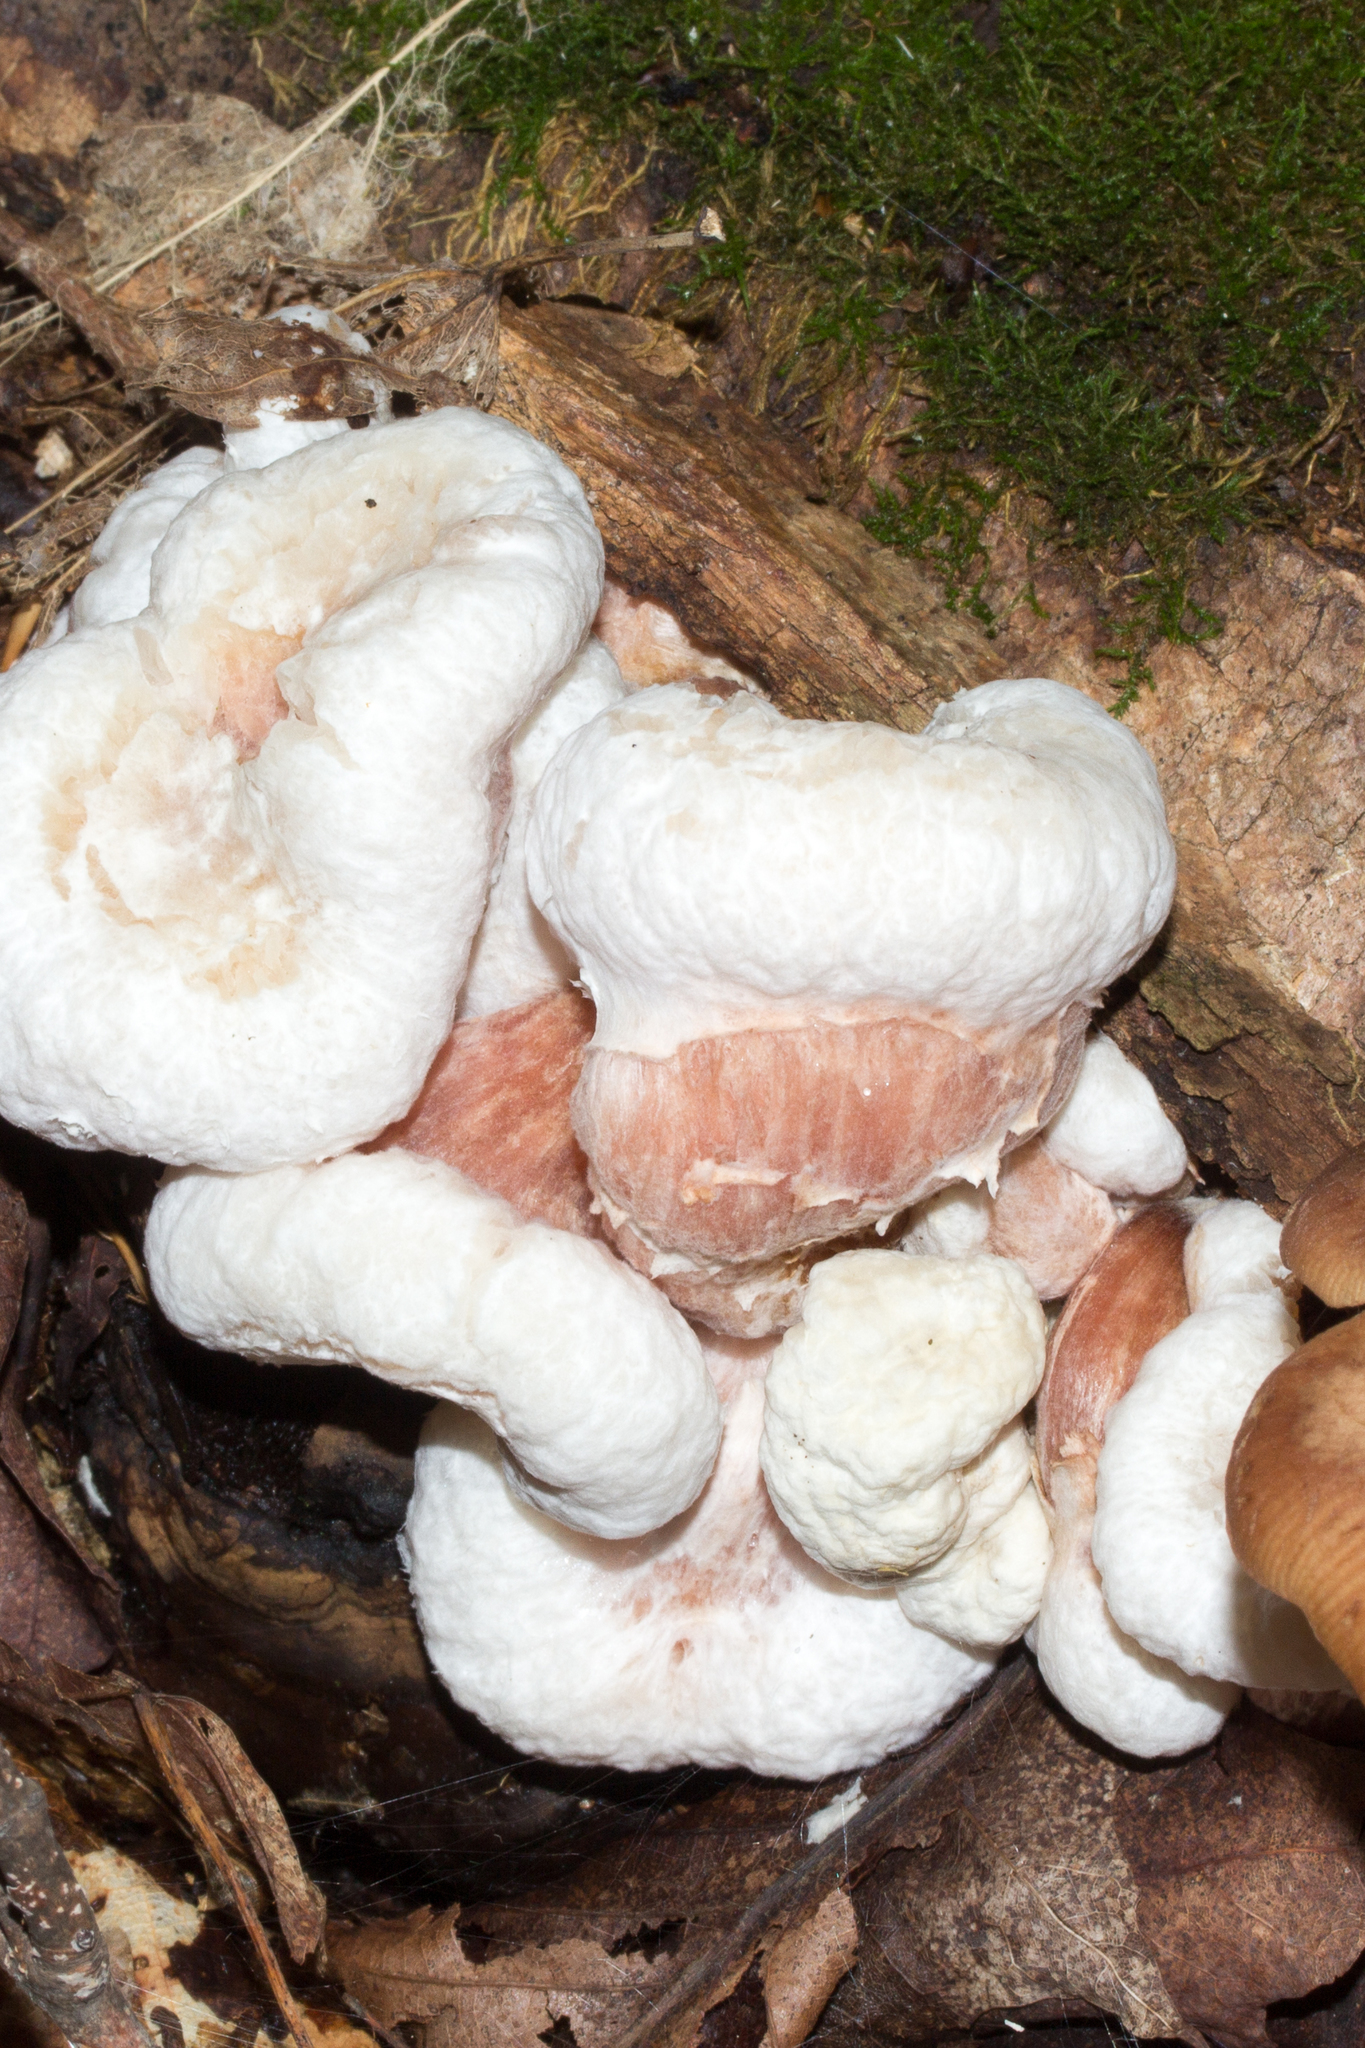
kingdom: Fungi
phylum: Basidiomycota
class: Agaricomycetes
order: Agaricales
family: Entolomataceae
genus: Entoloma
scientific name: Entoloma abortivum
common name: Aborted entoloma
